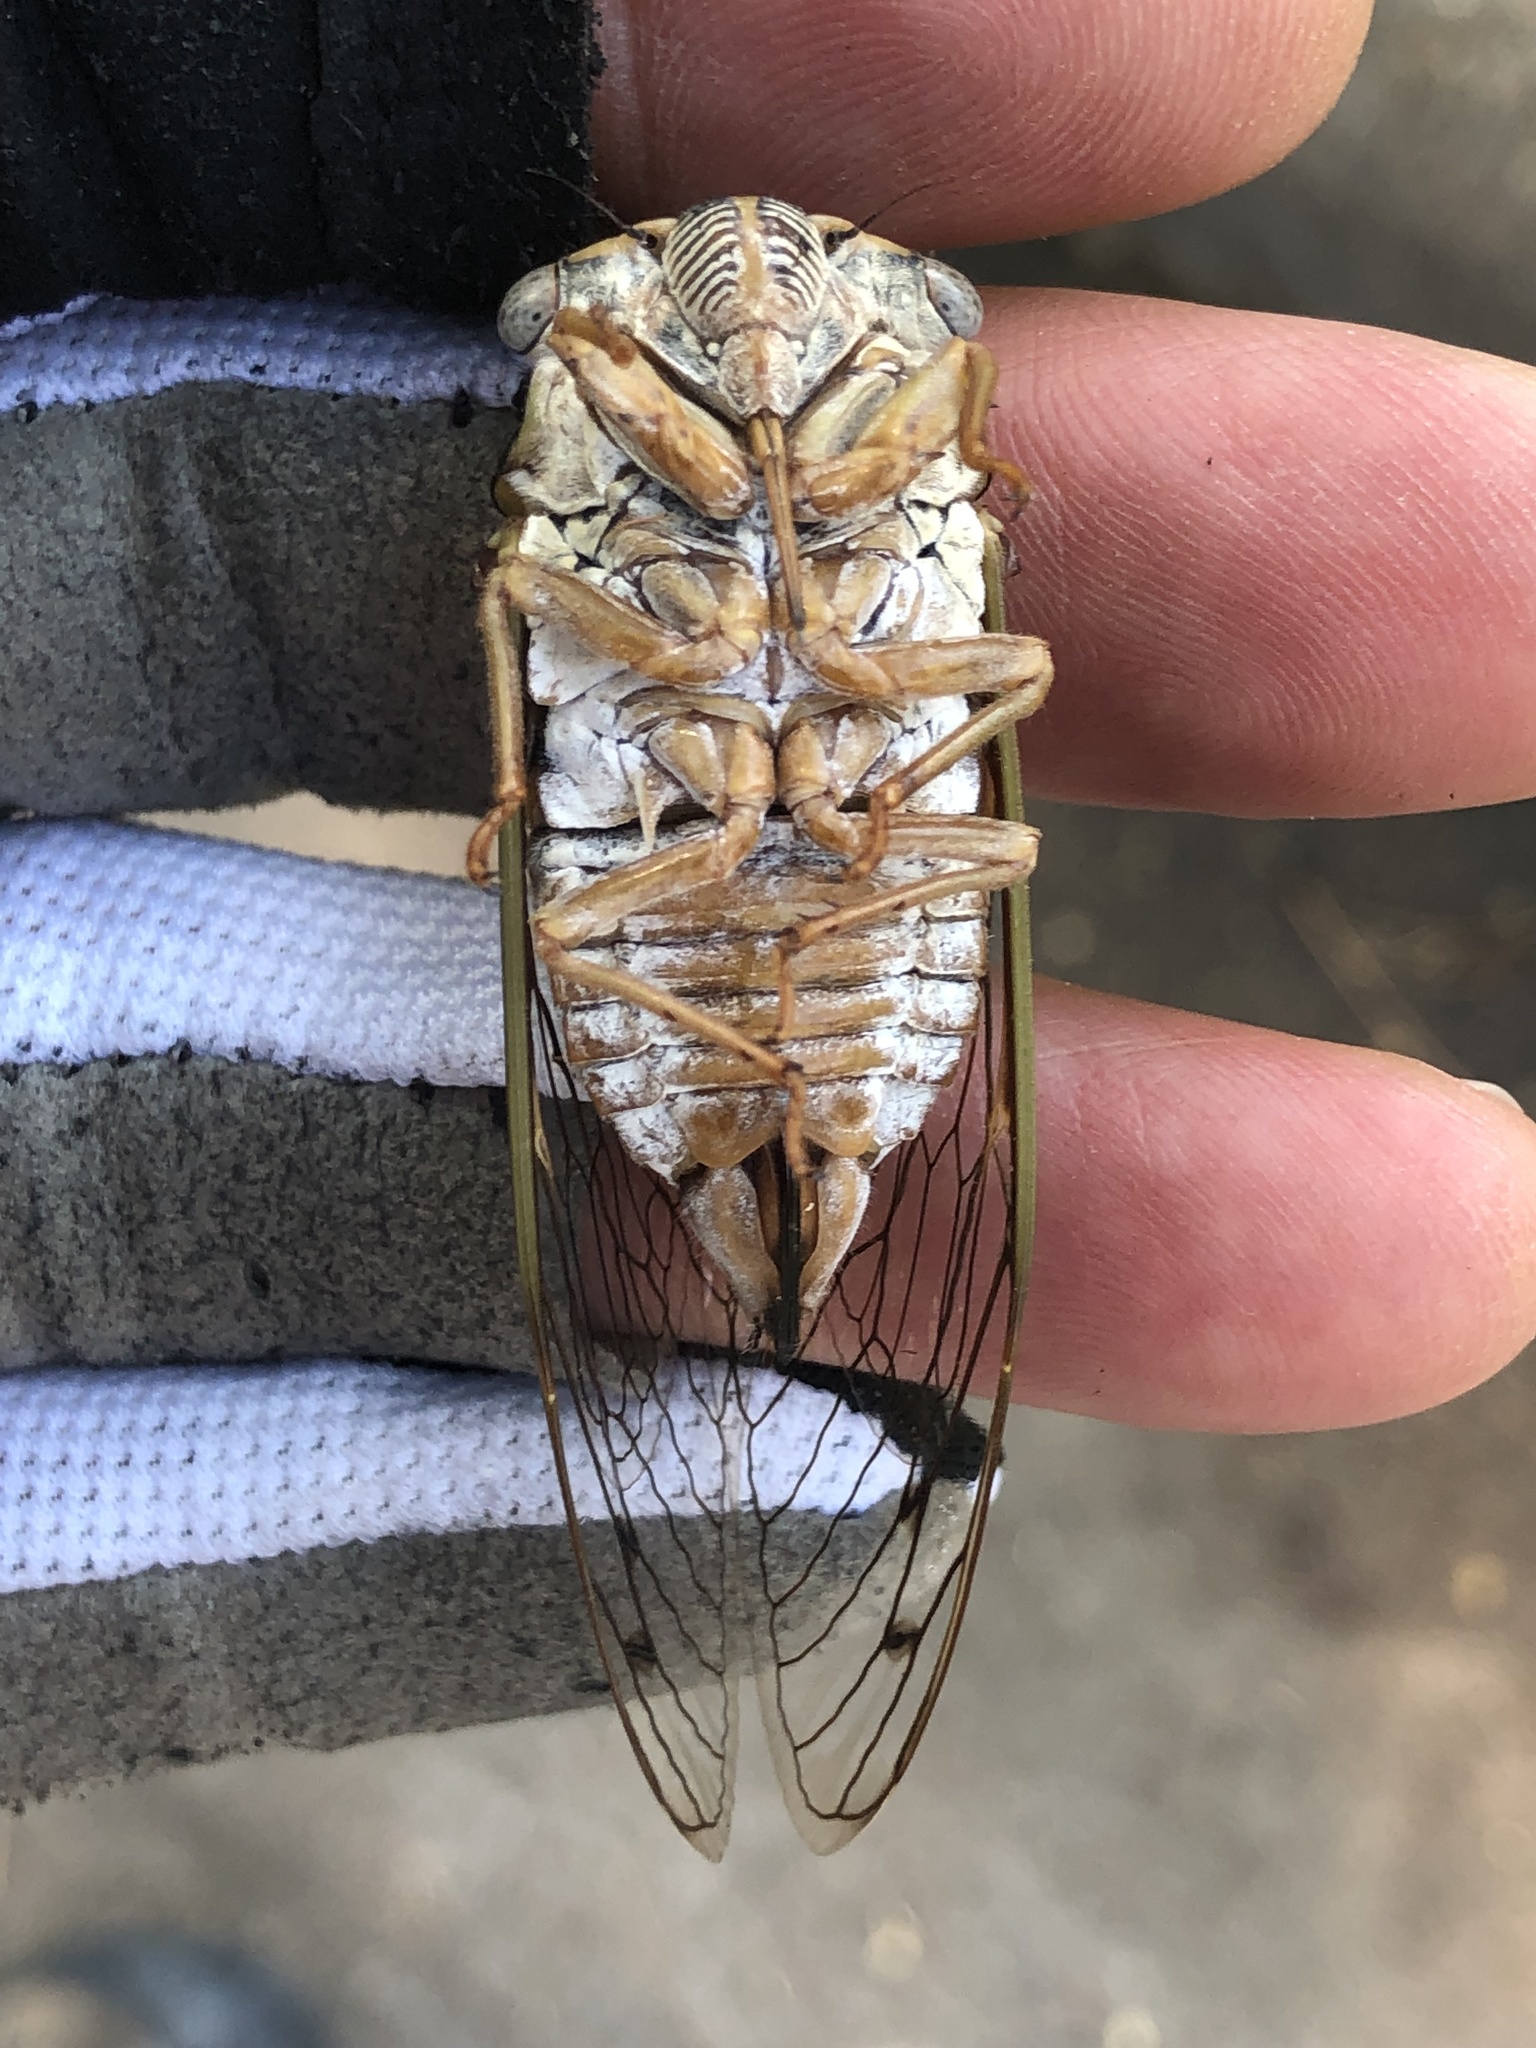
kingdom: Animalia
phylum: Arthropoda
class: Insecta
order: Hemiptera
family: Cicadidae
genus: Megatibicen
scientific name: Megatibicen resh
